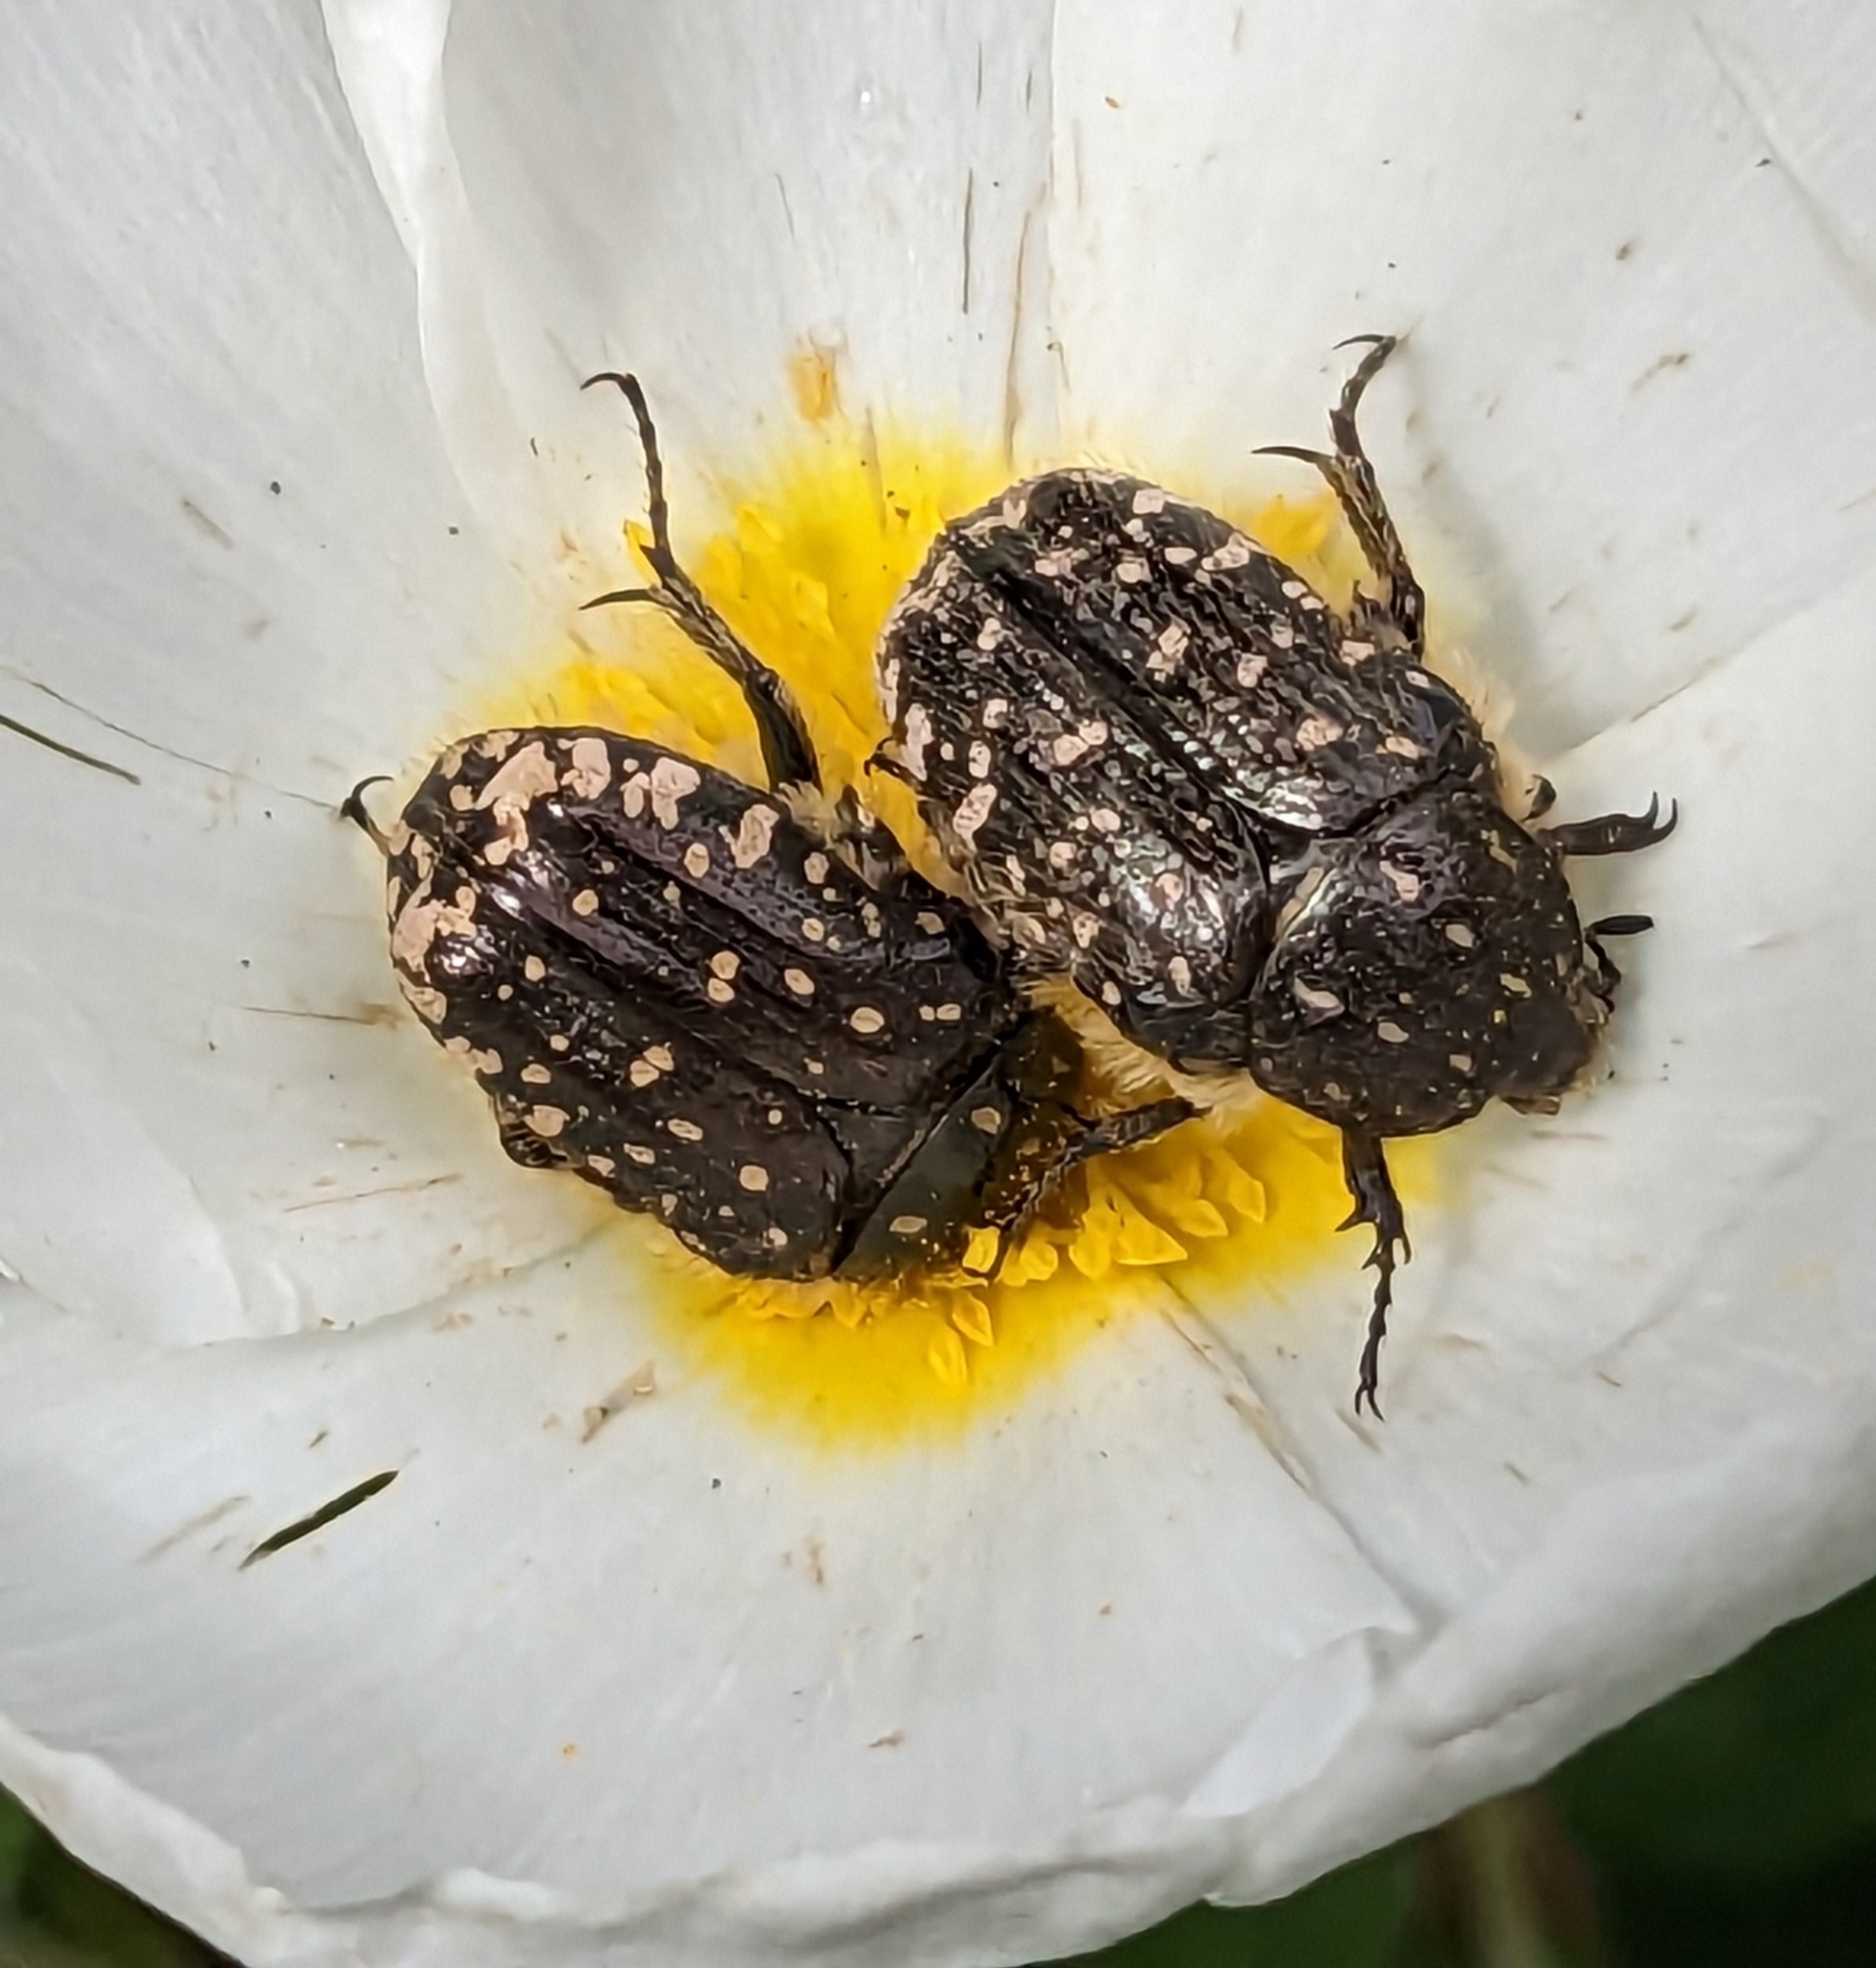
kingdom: Animalia
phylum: Arthropoda
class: Insecta
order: Coleoptera
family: Scarabaeidae
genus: Oxythyrea
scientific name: Oxythyrea funesta
